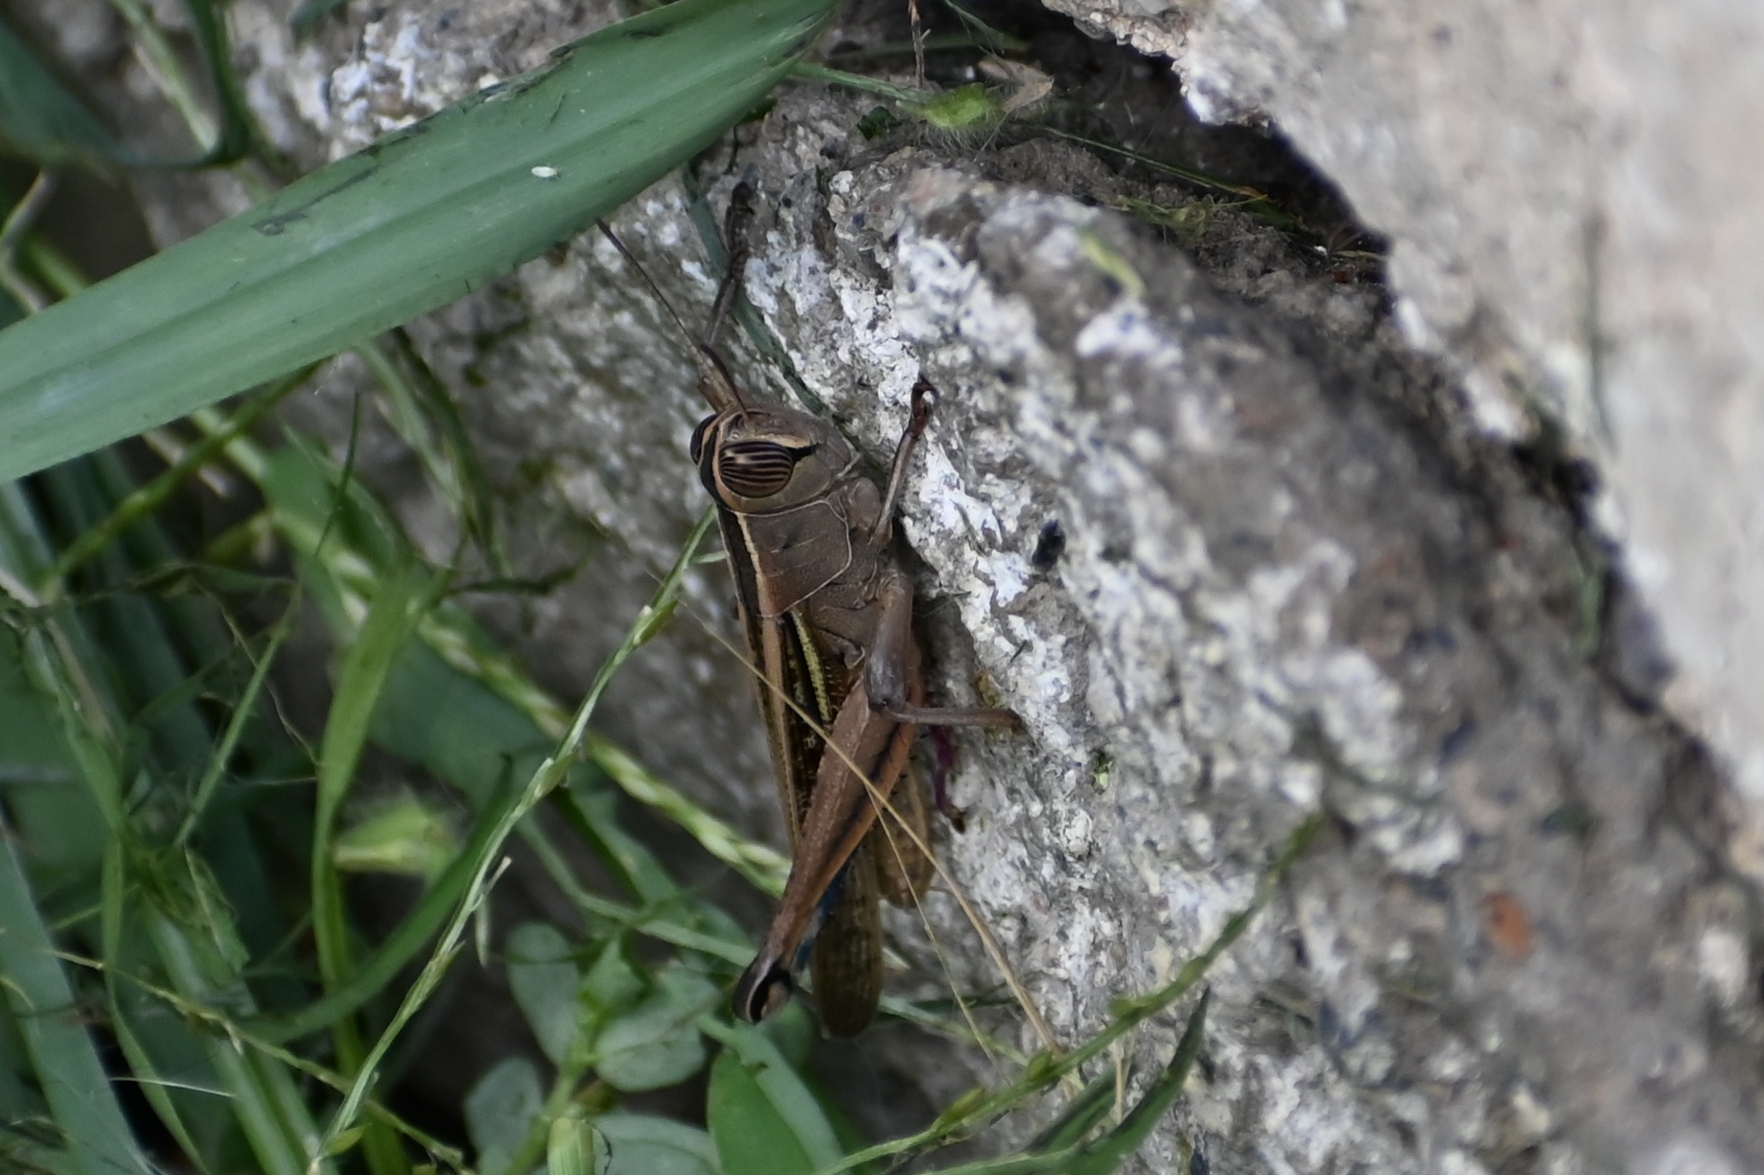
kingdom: Animalia
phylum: Arthropoda
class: Insecta
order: Orthoptera
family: Acrididae
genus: Eyprepocnemis
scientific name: Eyprepocnemis plorans
